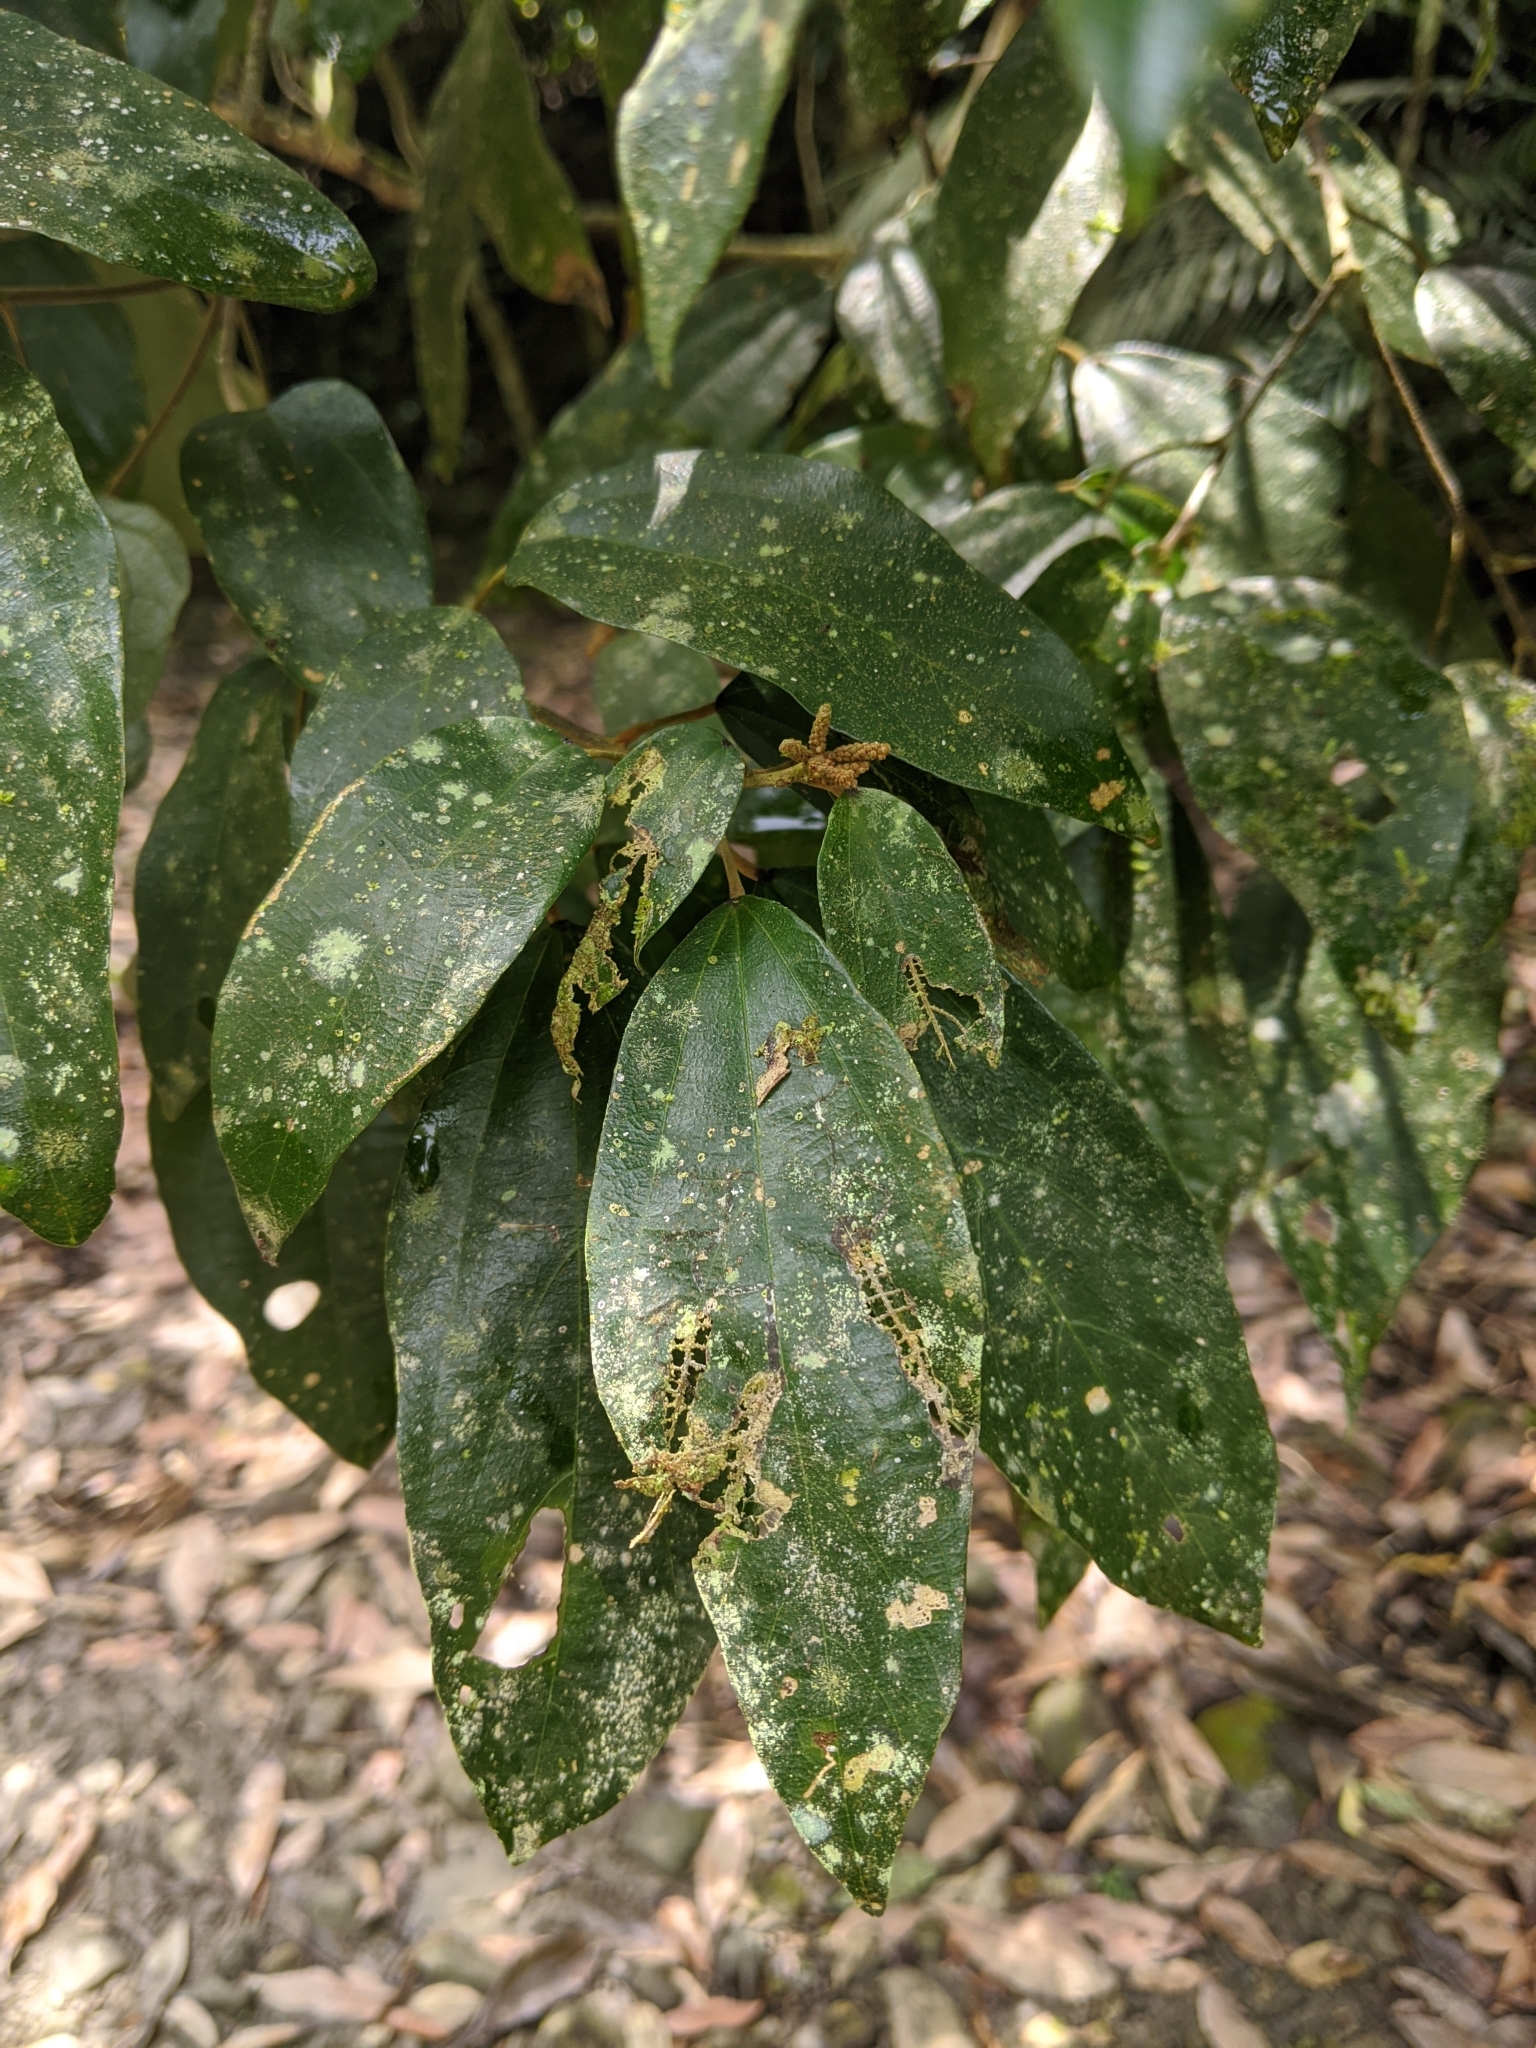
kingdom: Plantae
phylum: Tracheophyta
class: Magnoliopsida
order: Malpighiales
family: Euphorbiaceae
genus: Mallotus
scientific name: Mallotus philippensis
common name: Kamala tree
